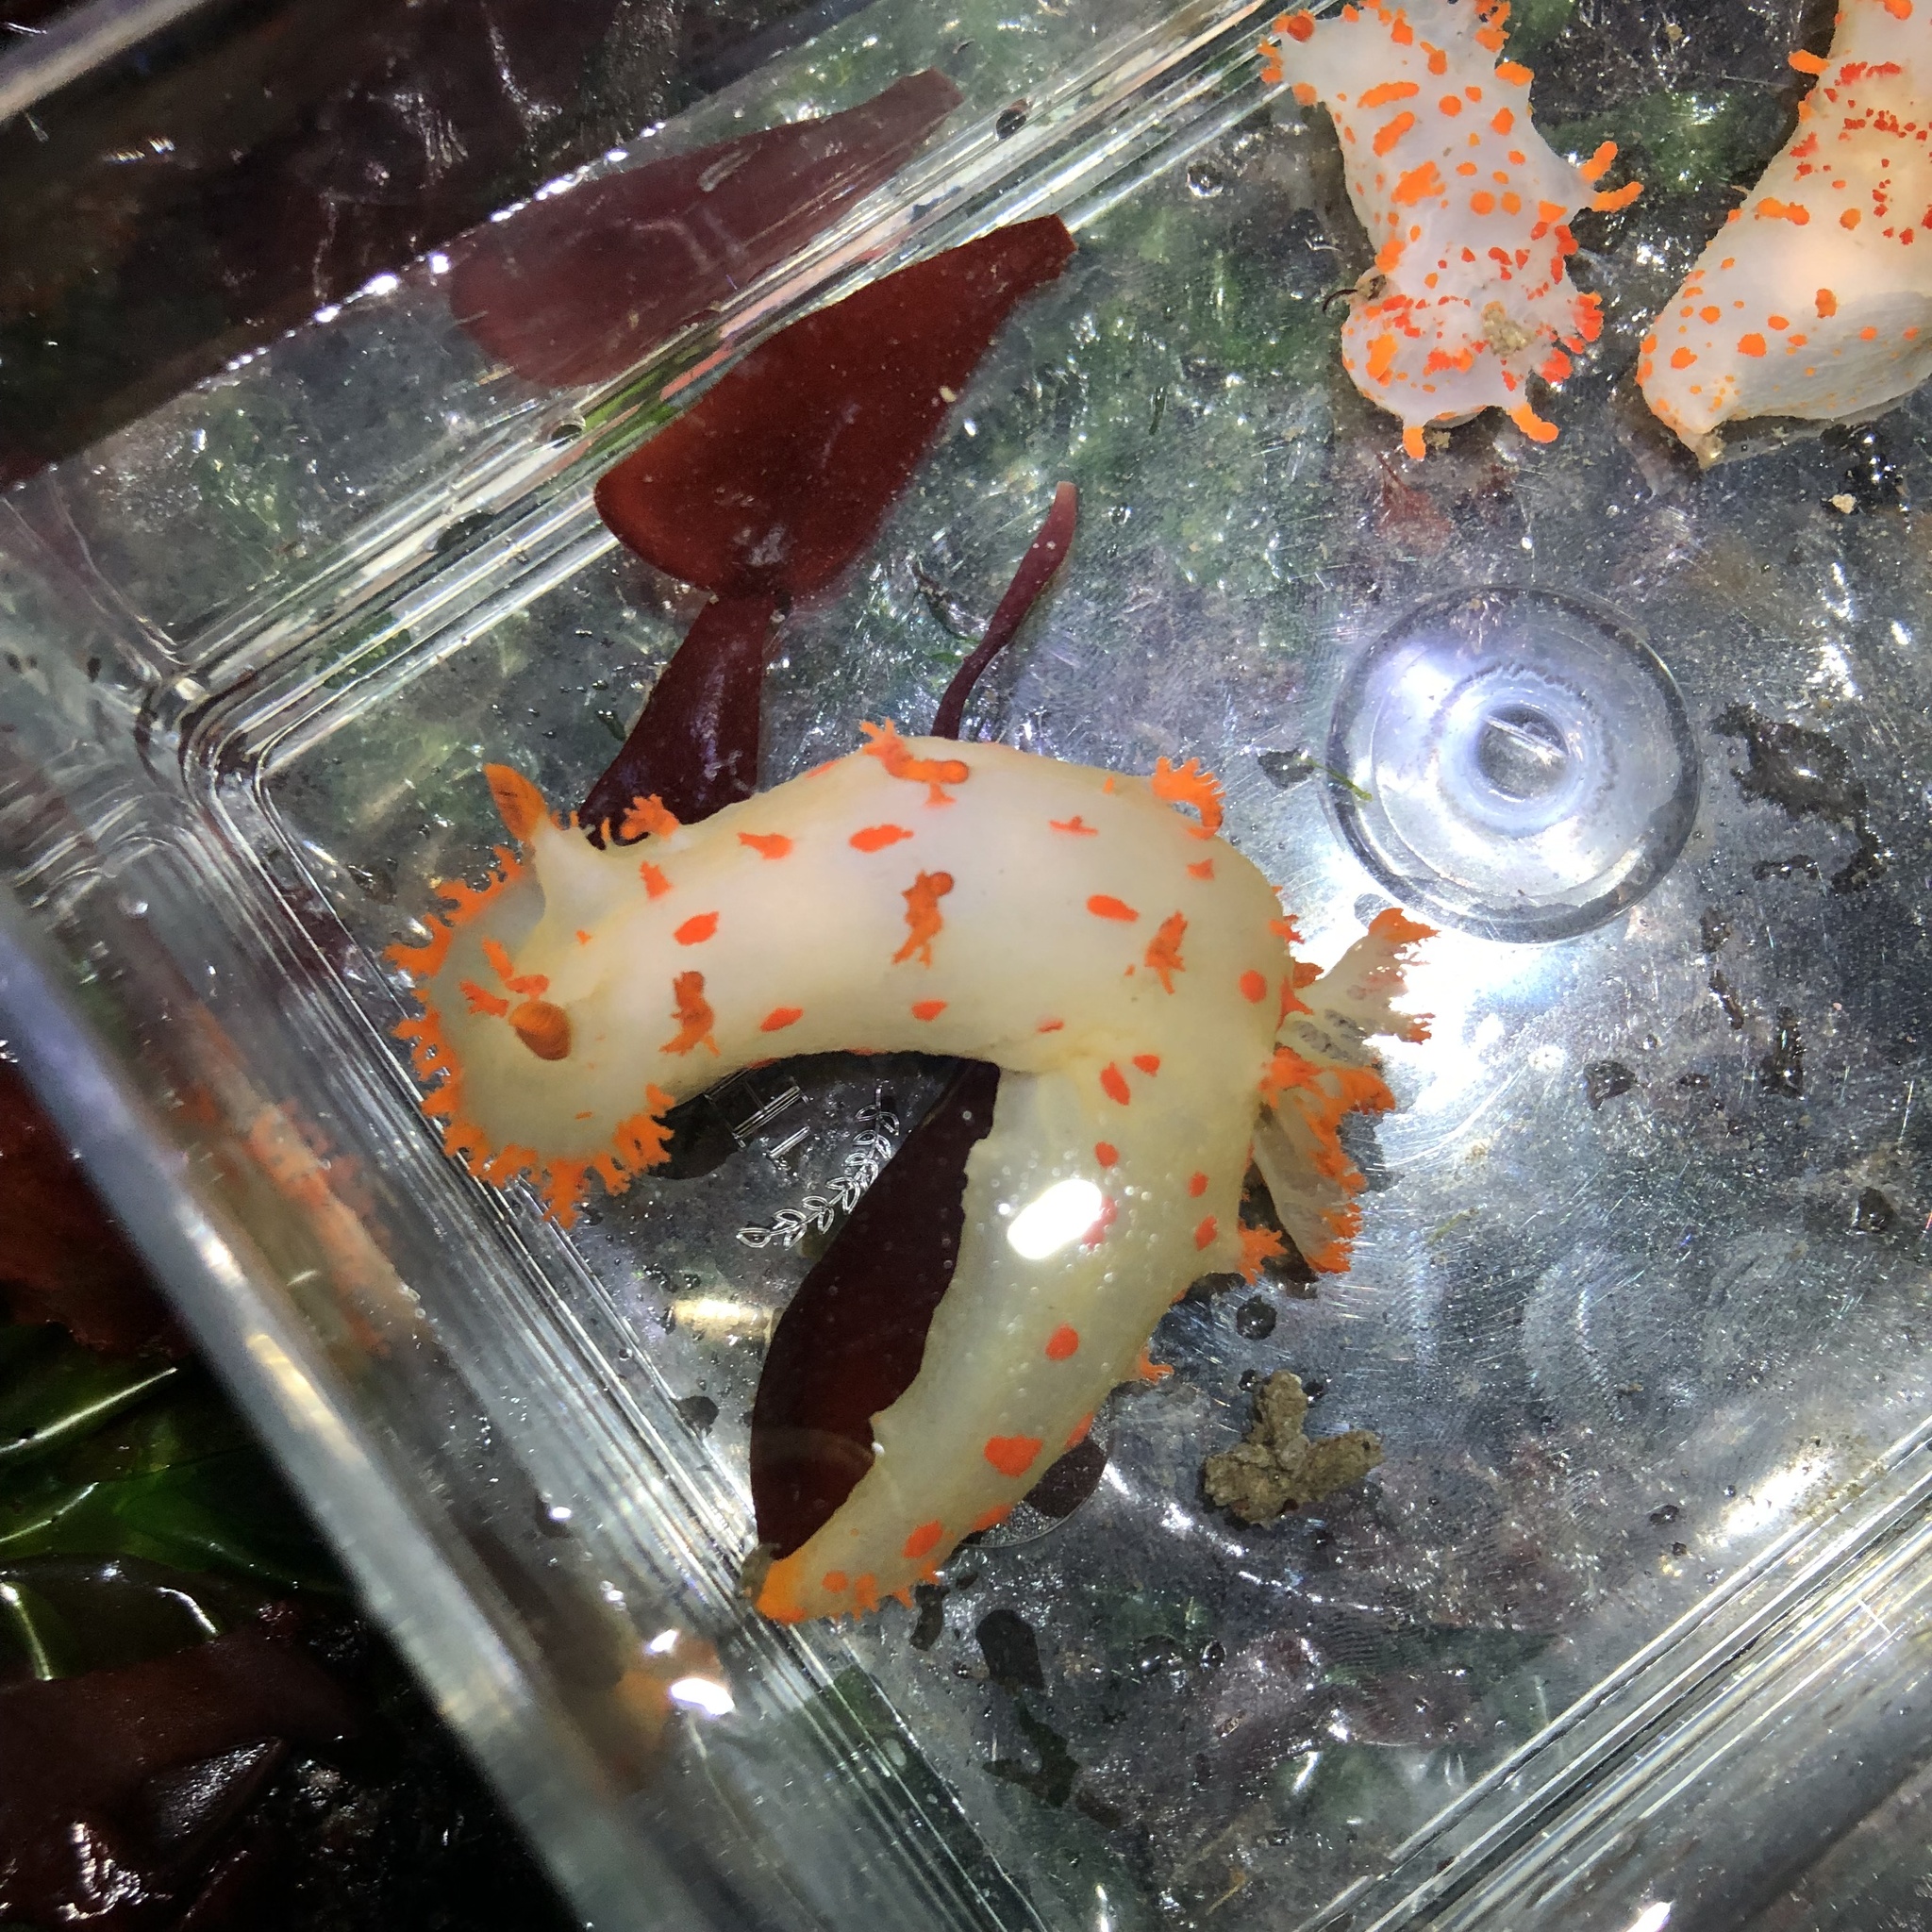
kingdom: Animalia
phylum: Mollusca
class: Gastropoda
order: Nudibranchia
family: Polyceridae
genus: Triopha
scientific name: Triopha modesta
